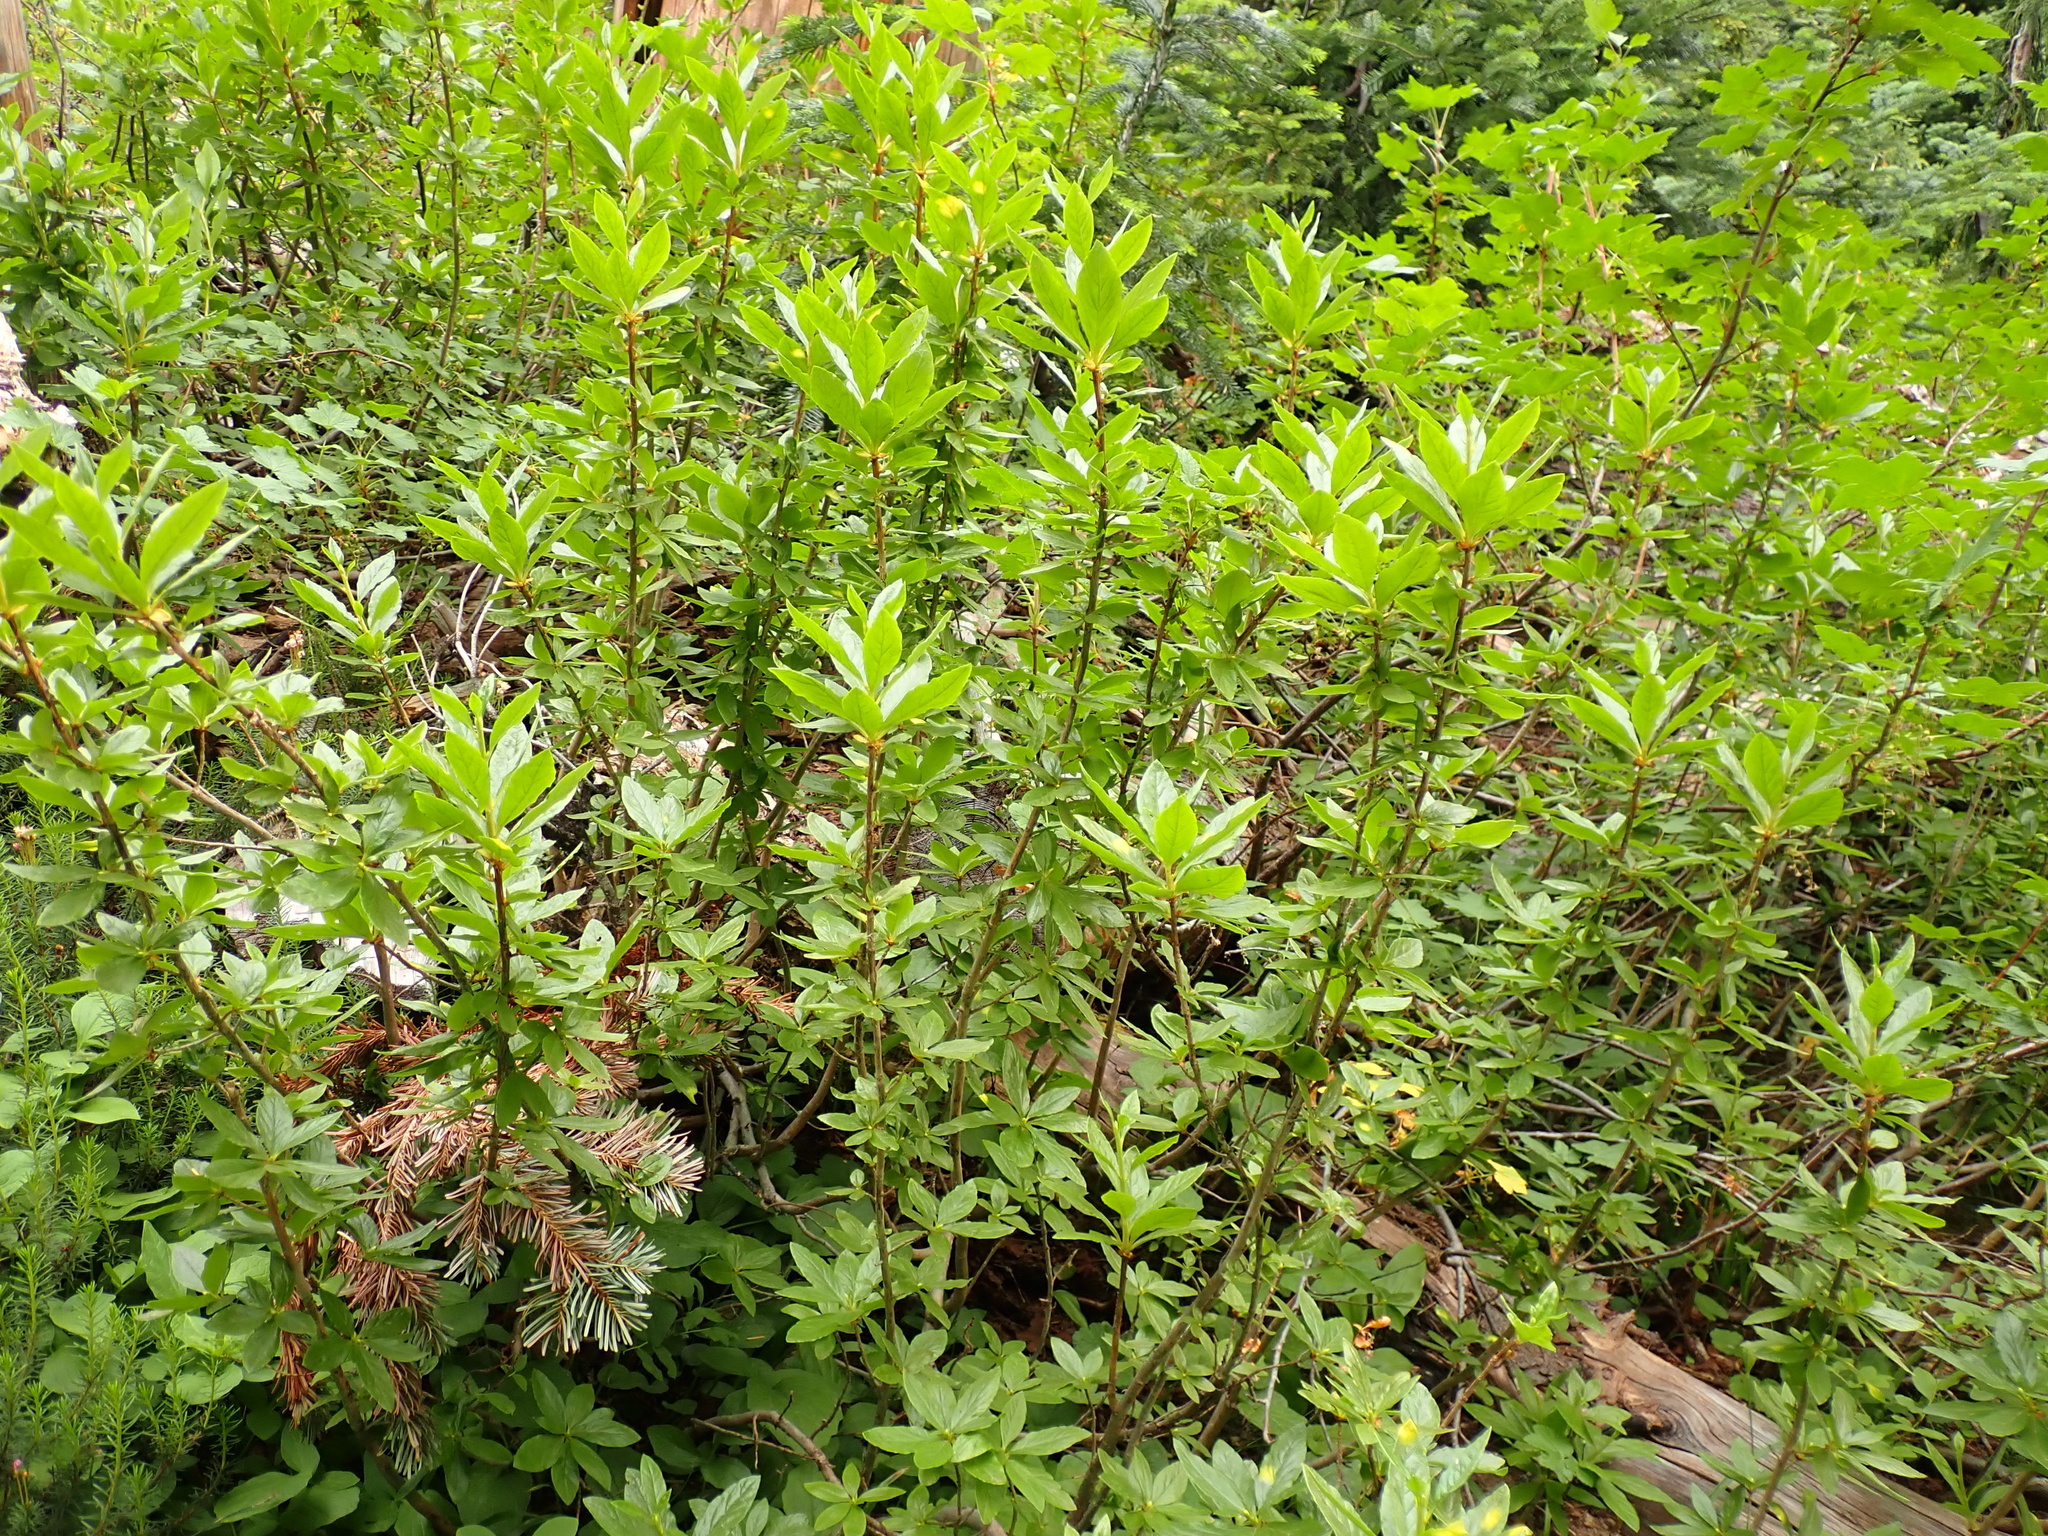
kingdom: Plantae
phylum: Tracheophyta
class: Magnoliopsida
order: Ericales
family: Ericaceae
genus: Rhododendron
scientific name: Rhododendron albiflorum
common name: White rhododendron
